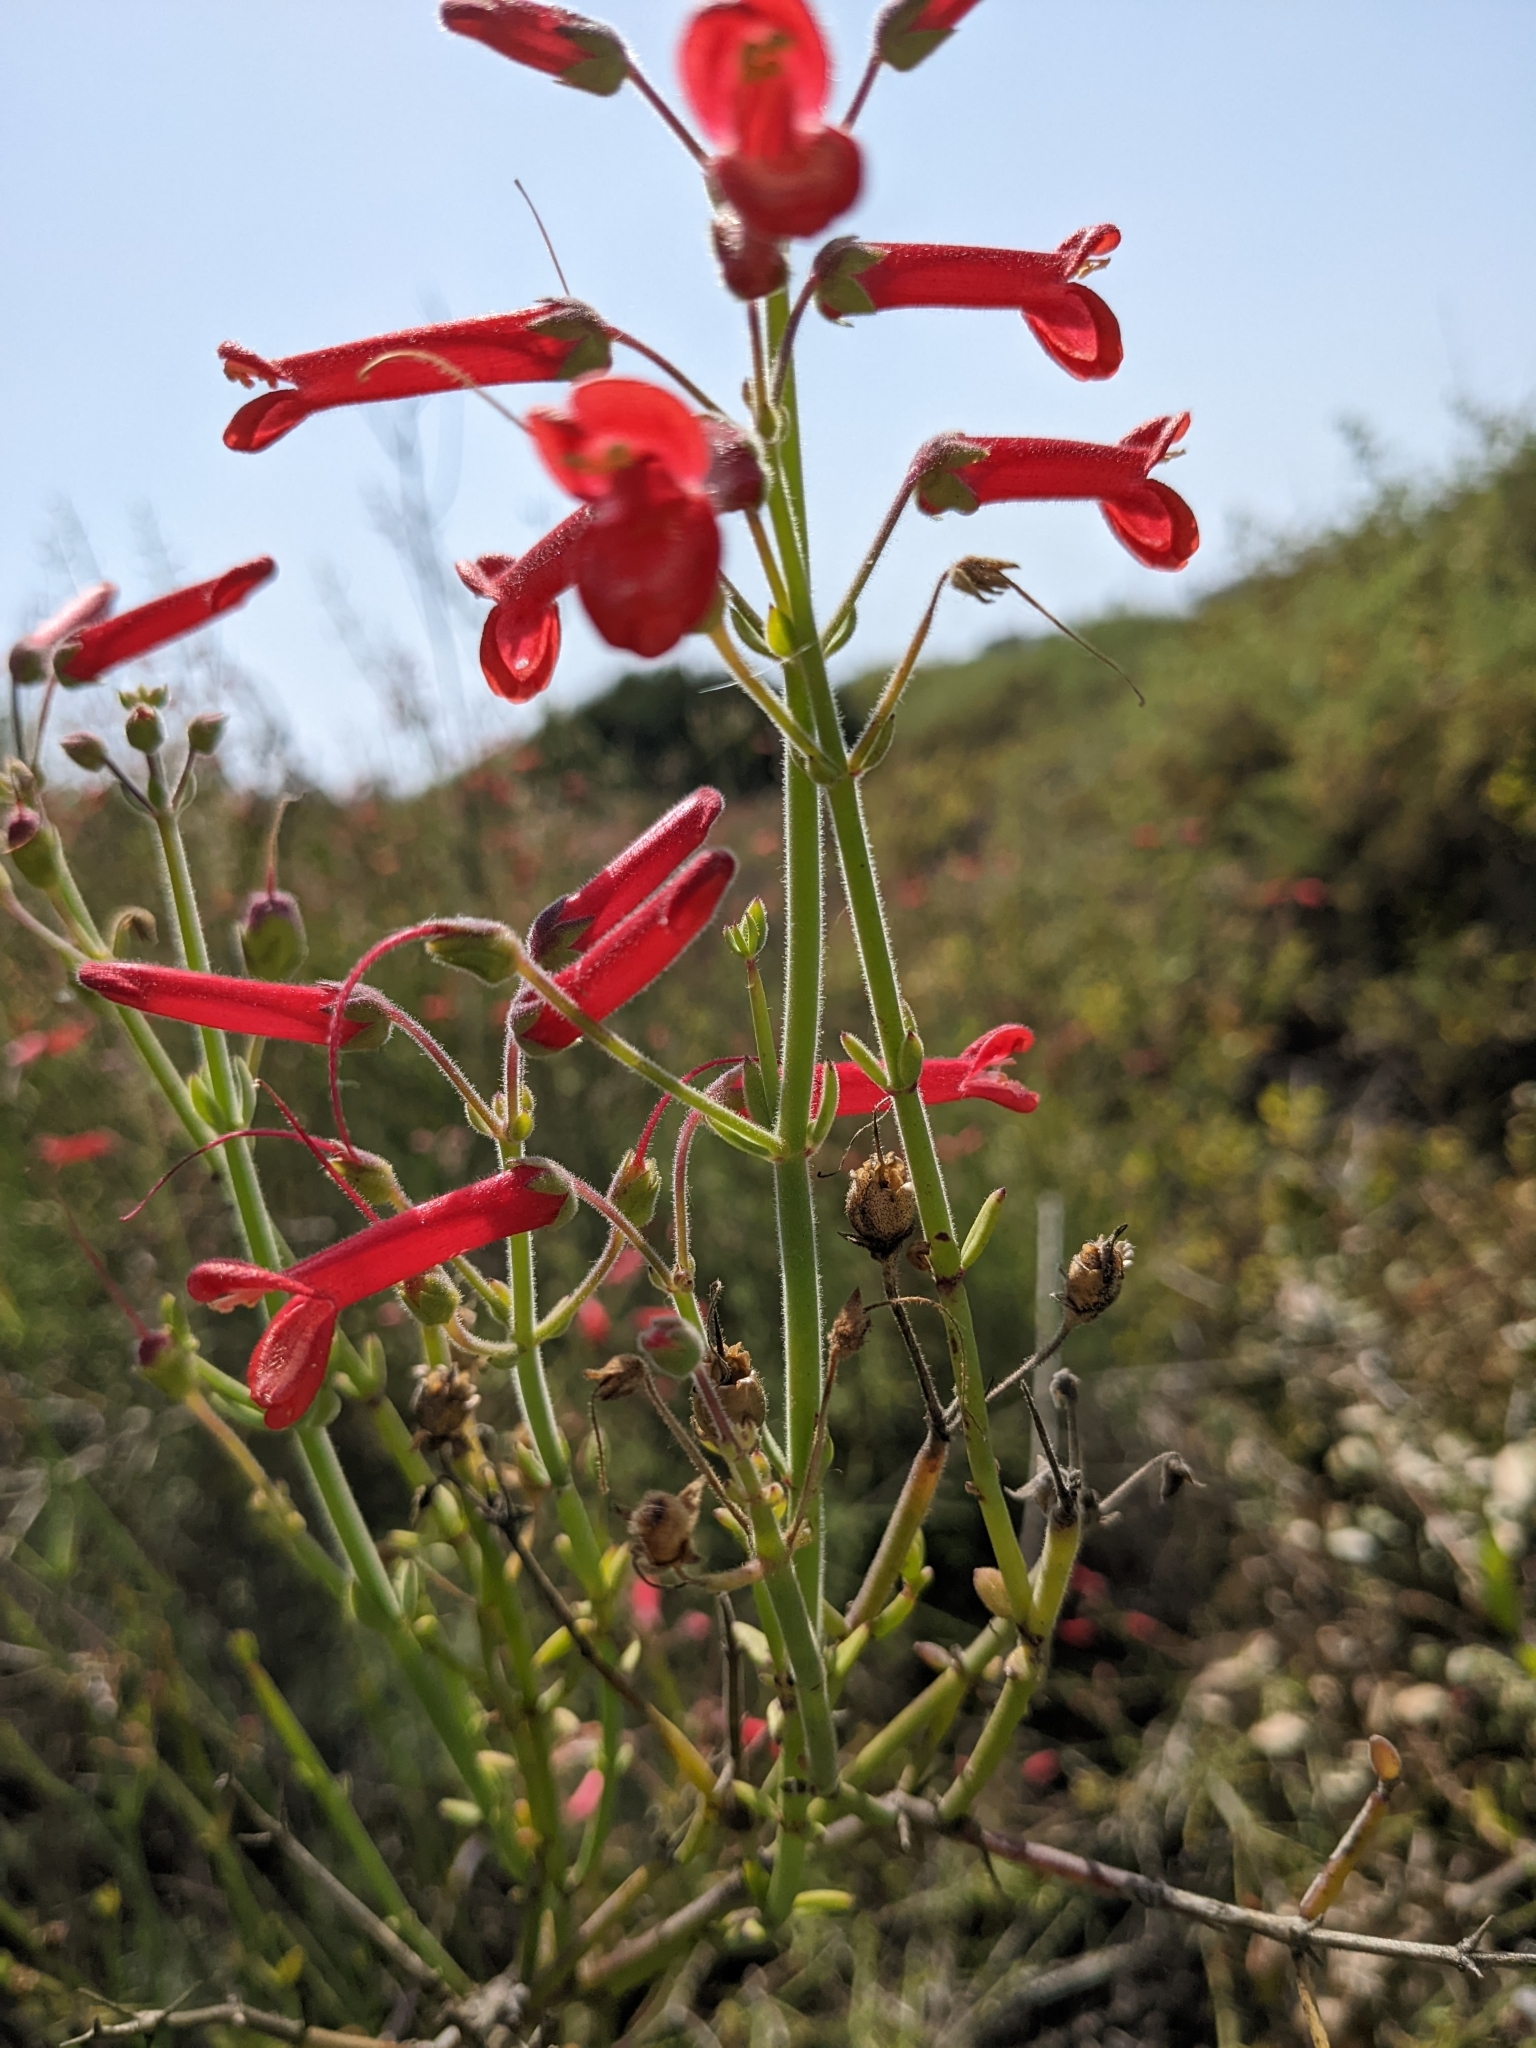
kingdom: Plantae
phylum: Tracheophyta
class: Magnoliopsida
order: Lamiales
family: Plantaginaceae
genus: Gambelia
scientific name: Gambelia juncea
